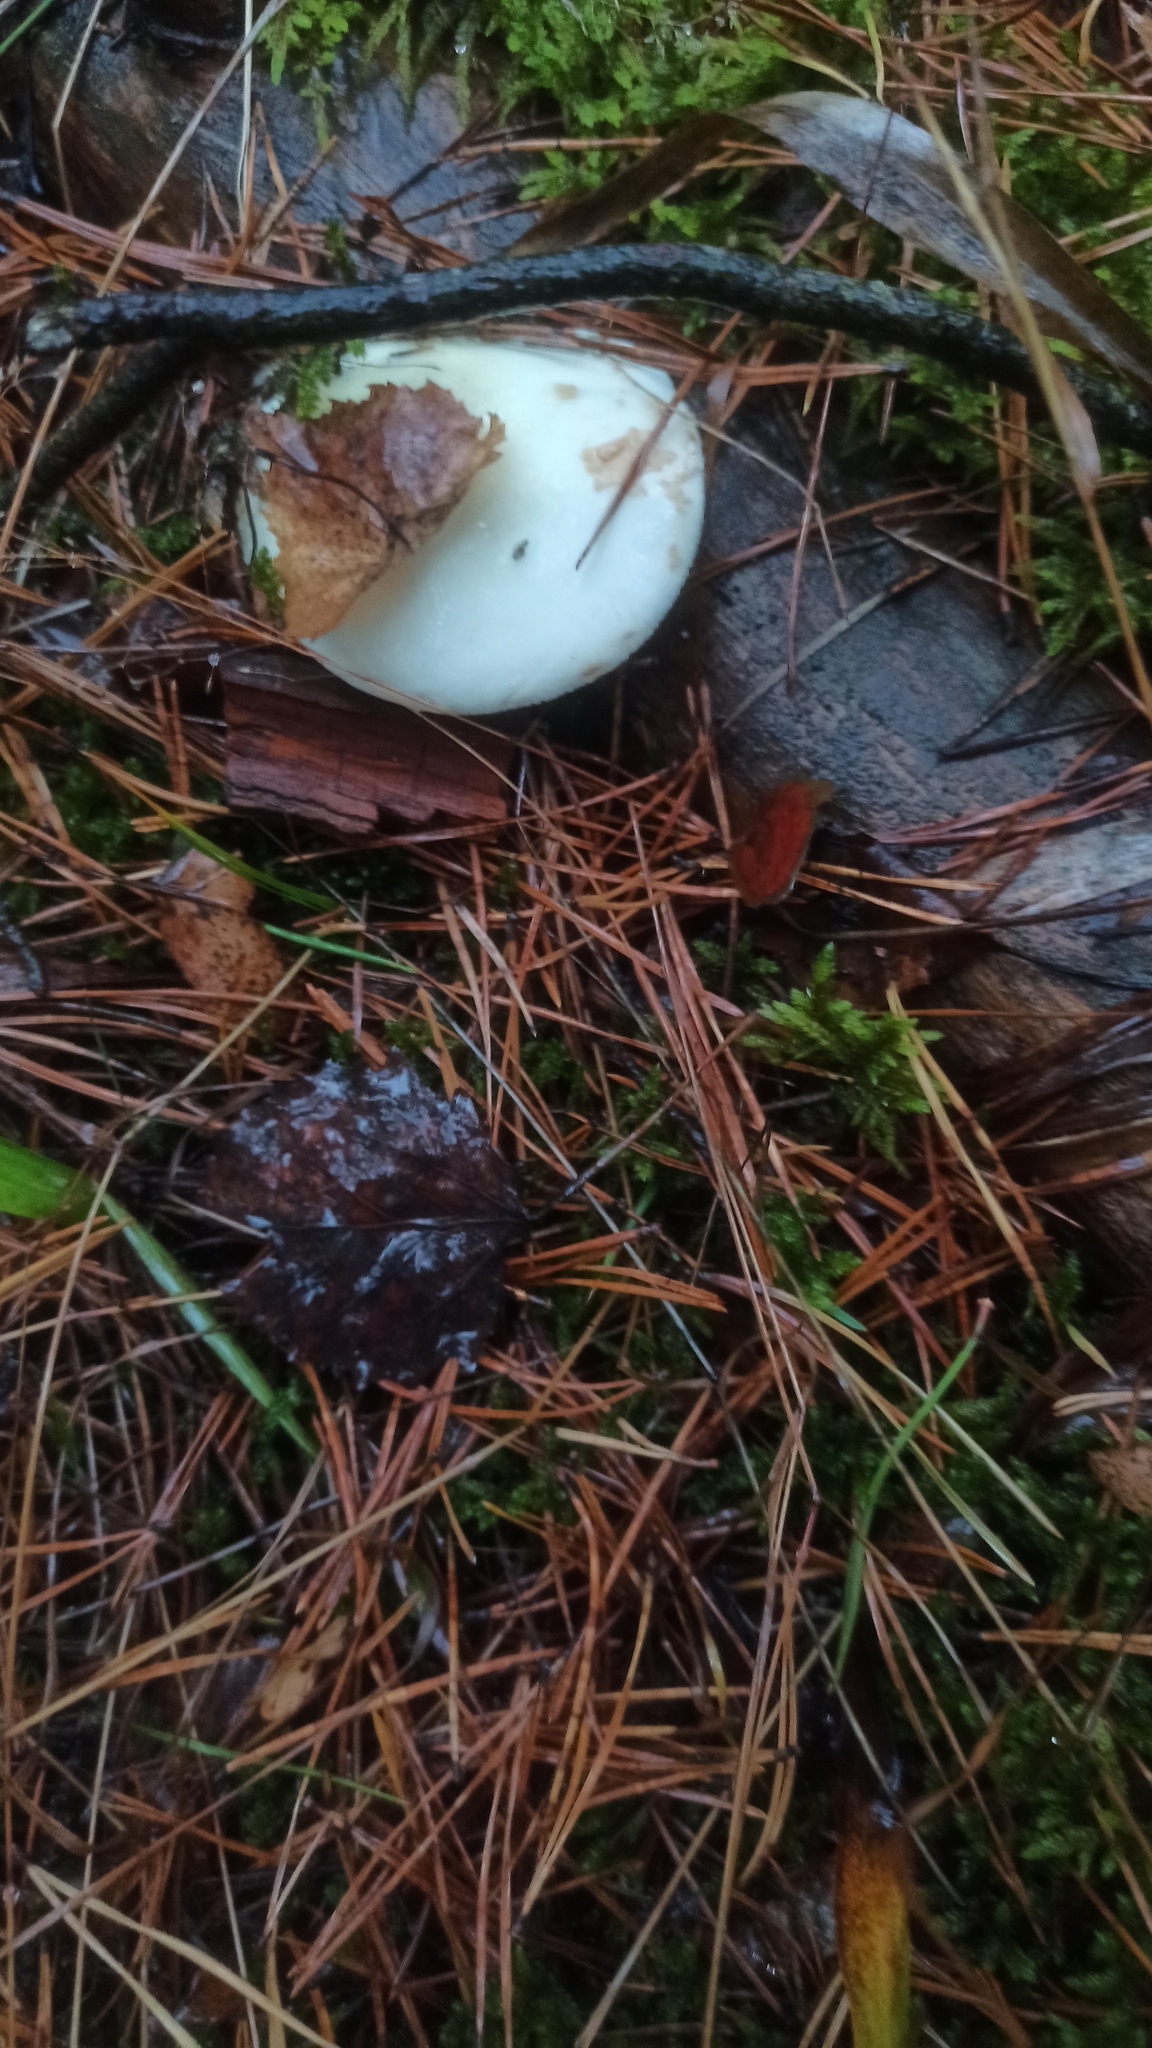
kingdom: Fungi
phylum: Basidiomycota
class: Agaricomycetes
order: Agaricales
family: Amanitaceae
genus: Amanita
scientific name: Amanita citrina
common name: False death-cap
